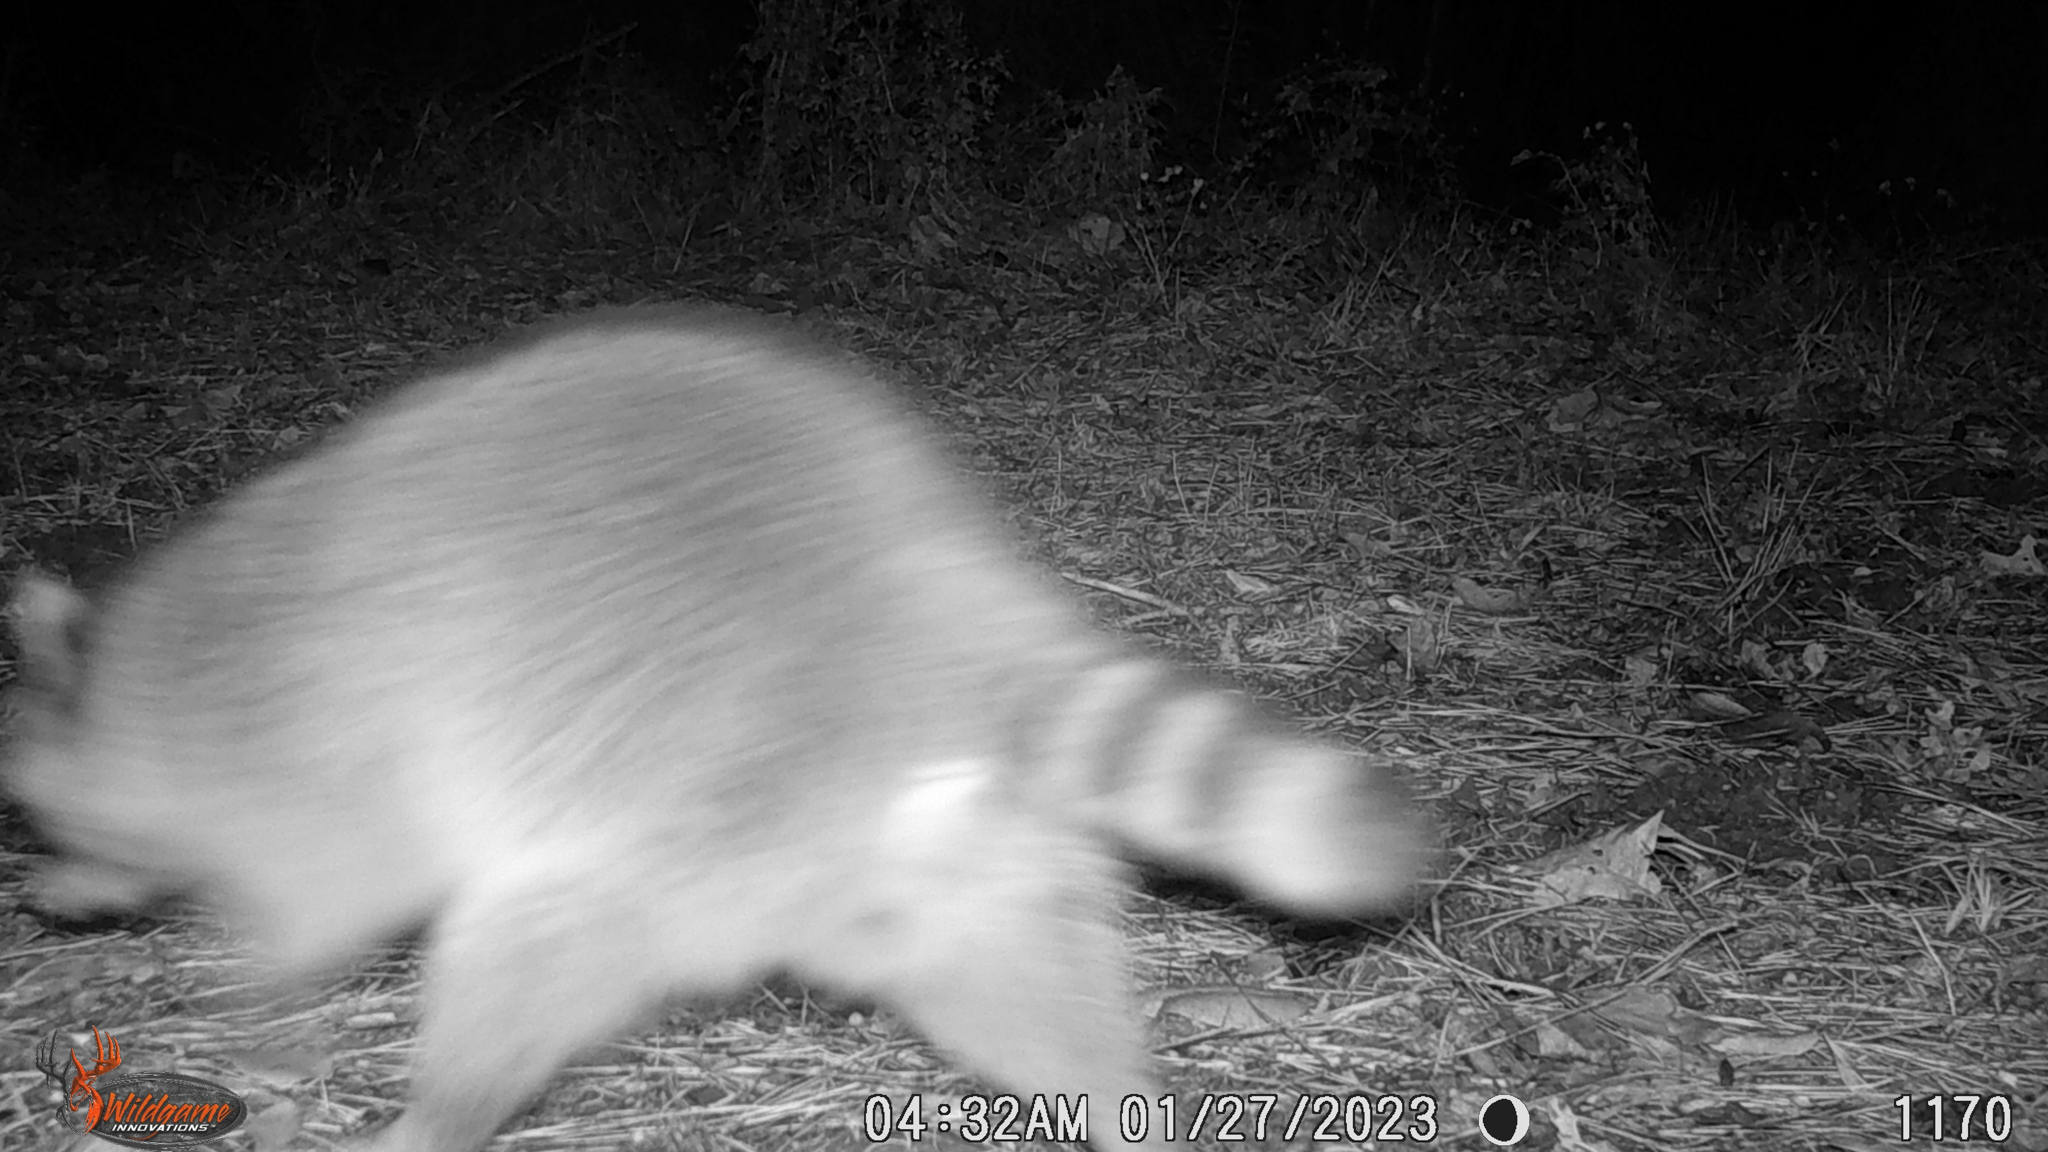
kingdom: Animalia
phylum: Chordata
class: Mammalia
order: Carnivora
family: Procyonidae
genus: Procyon
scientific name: Procyon lotor
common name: Raccoon
